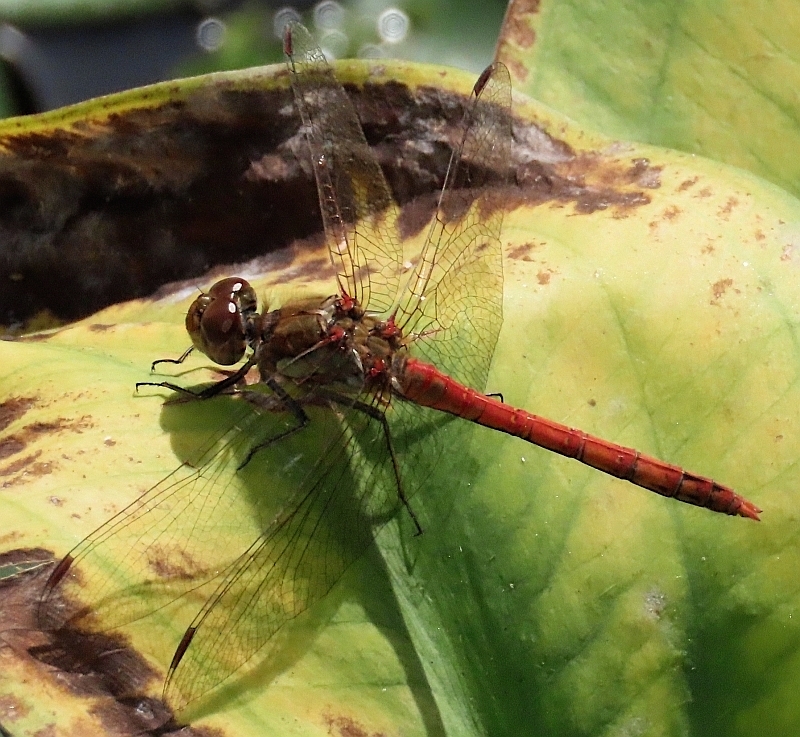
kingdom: Animalia
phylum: Arthropoda
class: Insecta
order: Odonata
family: Libellulidae
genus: Sympetrum
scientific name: Sympetrum striolatum
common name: Common darter
